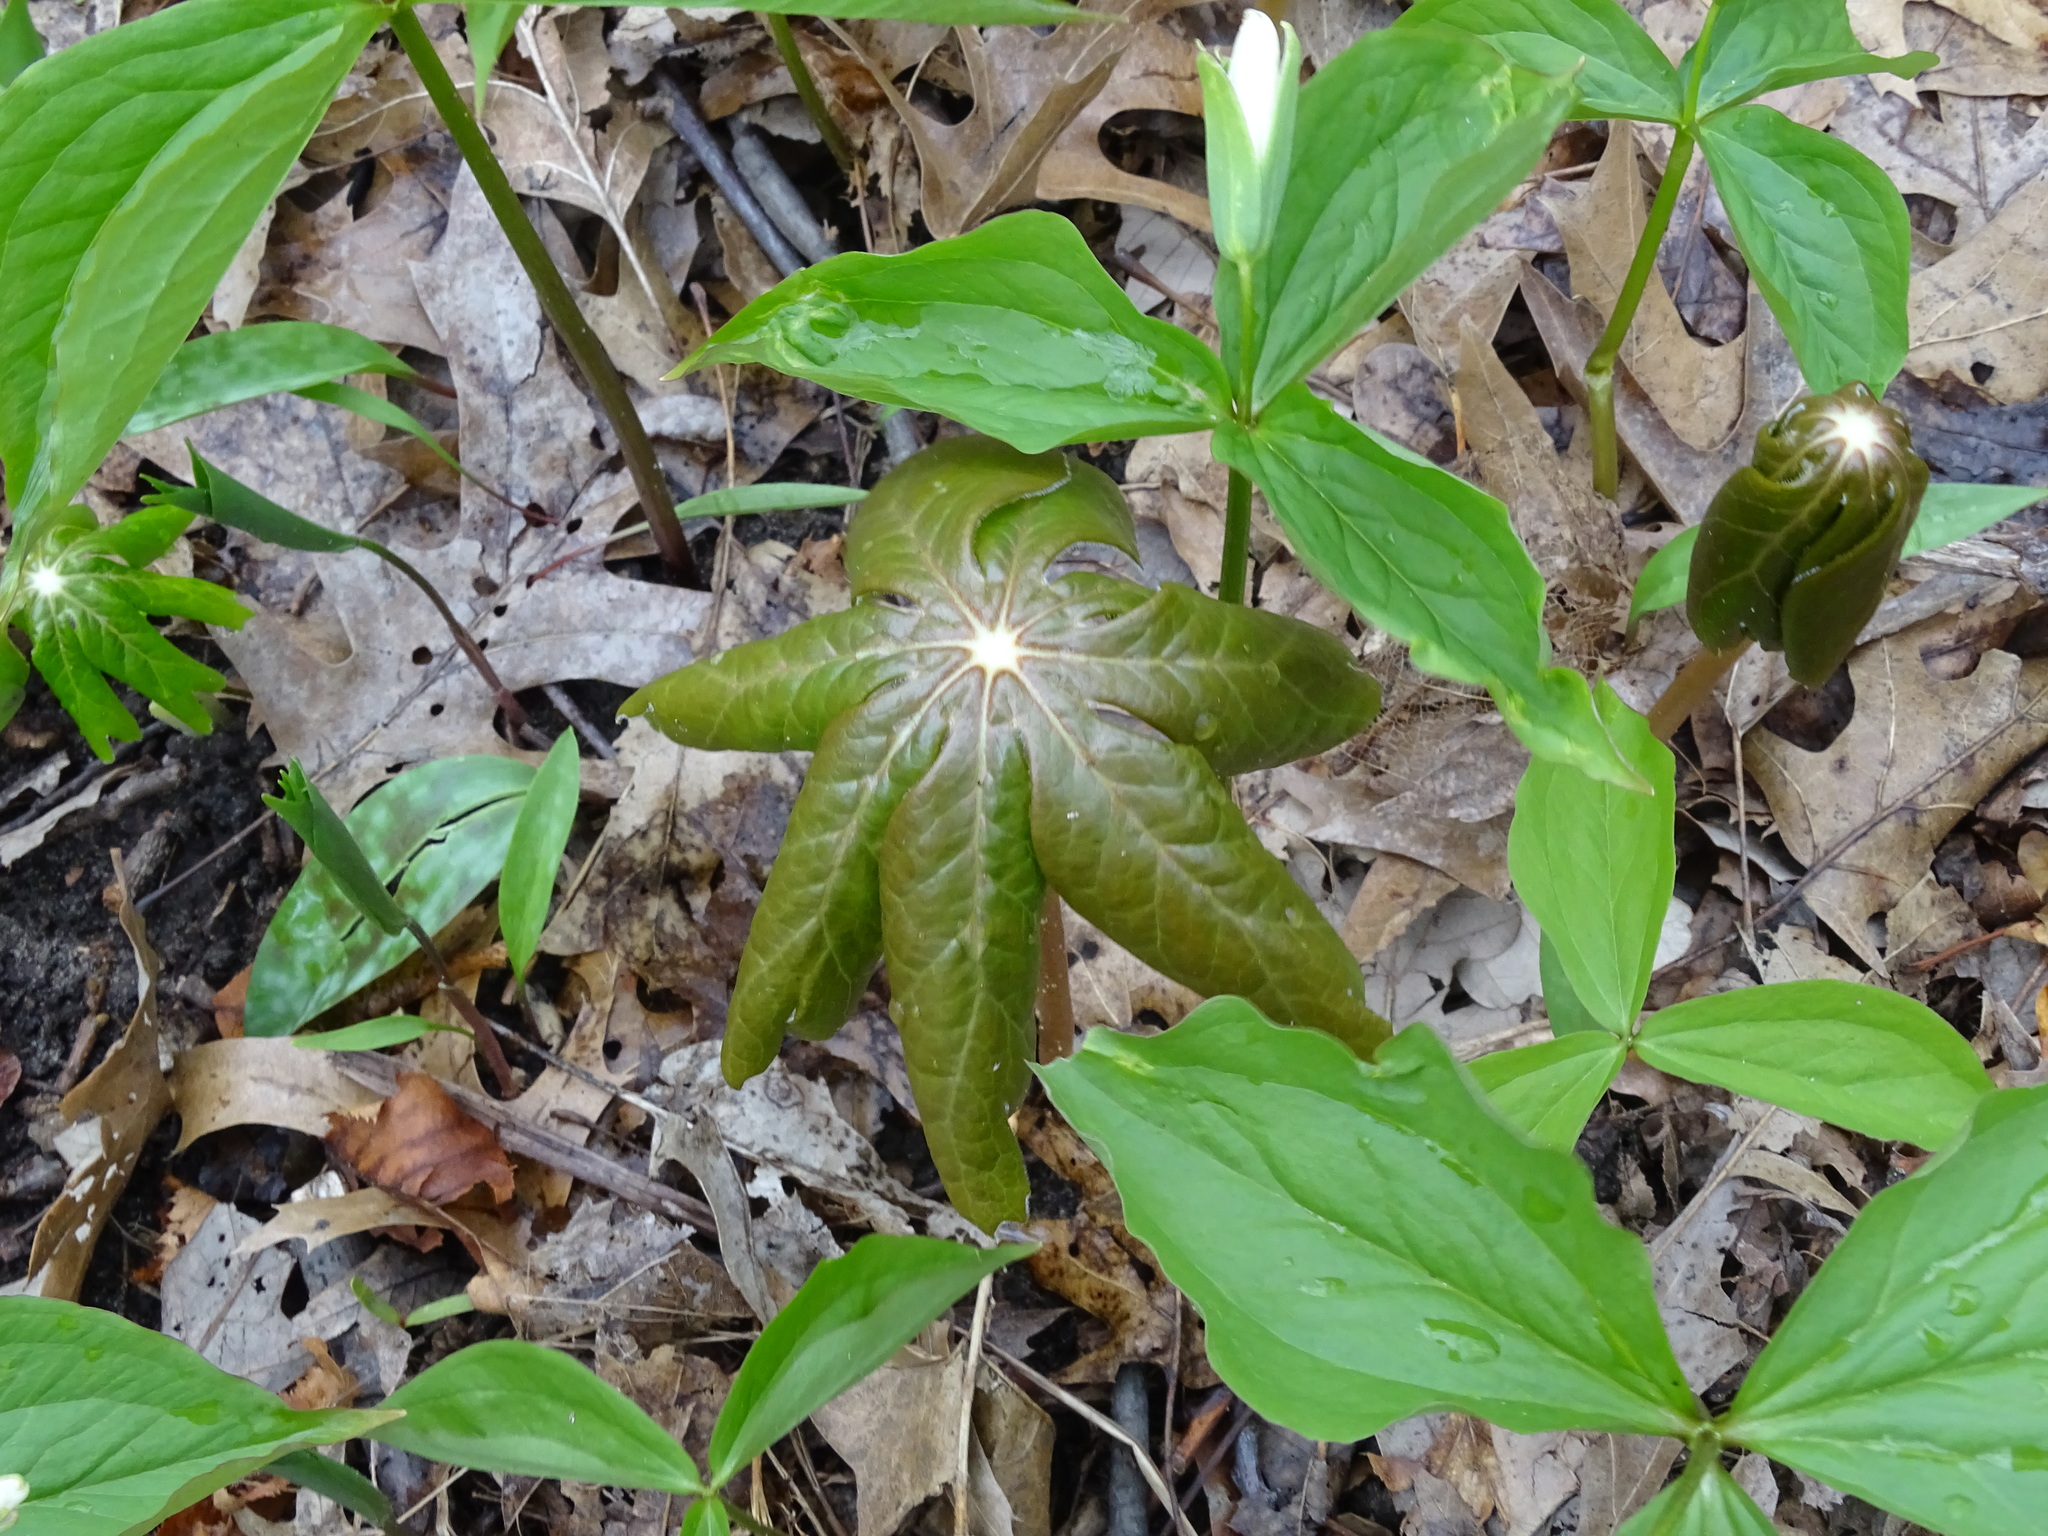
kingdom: Plantae
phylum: Tracheophyta
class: Magnoliopsida
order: Ranunculales
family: Berberidaceae
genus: Podophyllum
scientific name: Podophyllum peltatum
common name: Wild mandrake
